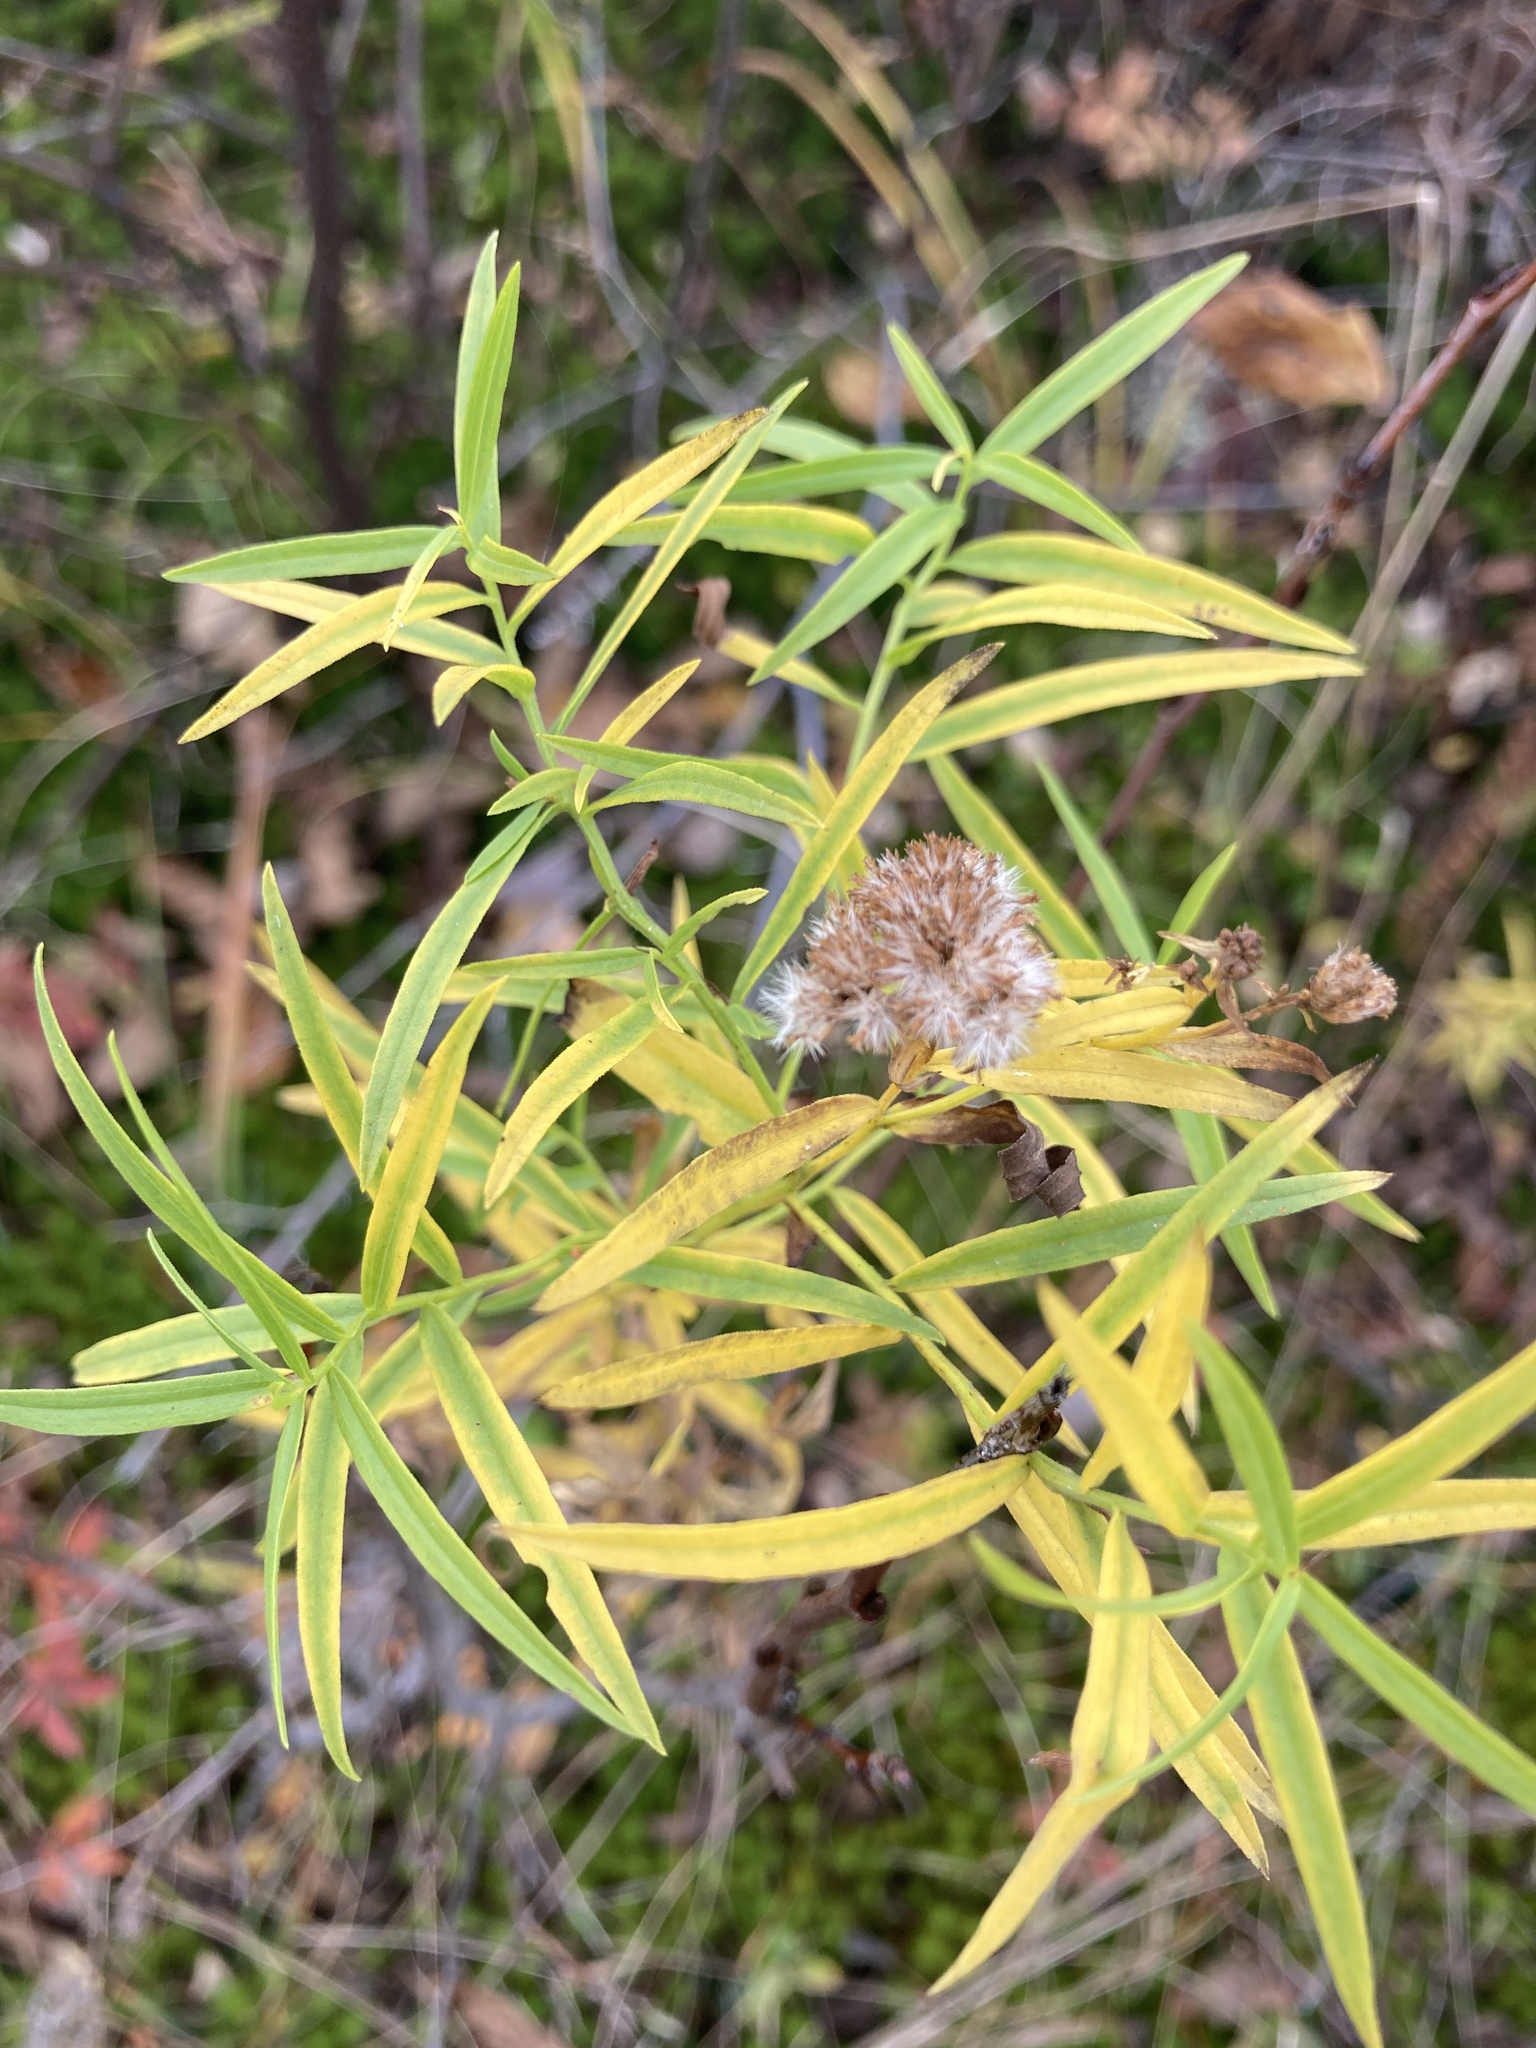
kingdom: Plantae
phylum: Tracheophyta
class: Magnoliopsida
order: Asterales
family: Asteraceae
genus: Euthamia
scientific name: Euthamia graminifolia
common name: Common goldentop
